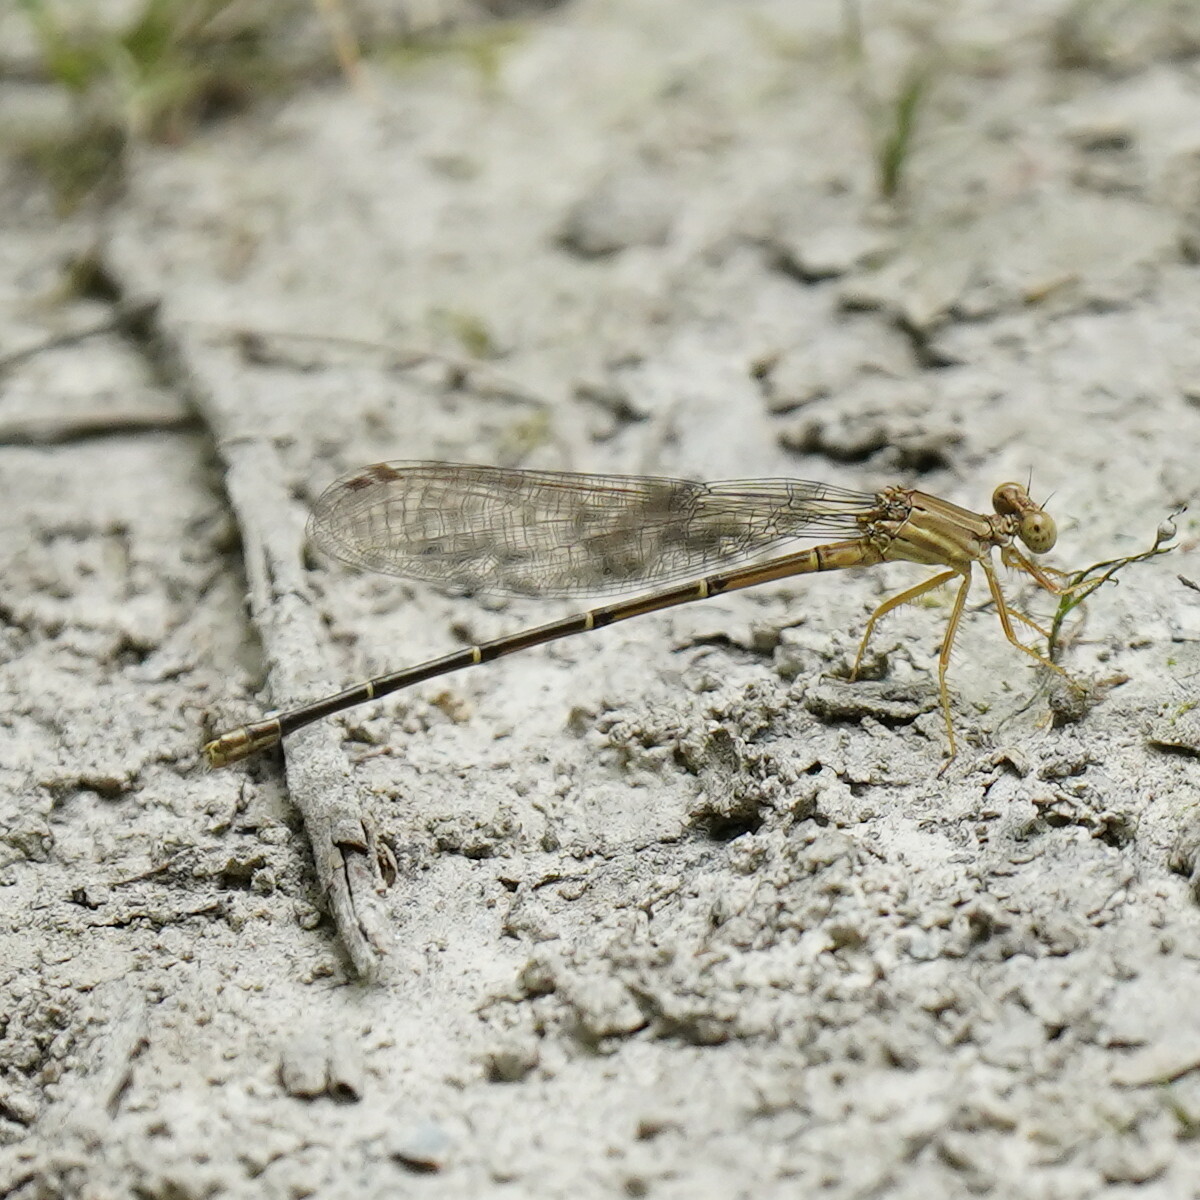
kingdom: Animalia
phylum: Arthropoda
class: Insecta
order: Odonata
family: Coenagrionidae
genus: Argia
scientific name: Argia moesta
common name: Powdered dancer
